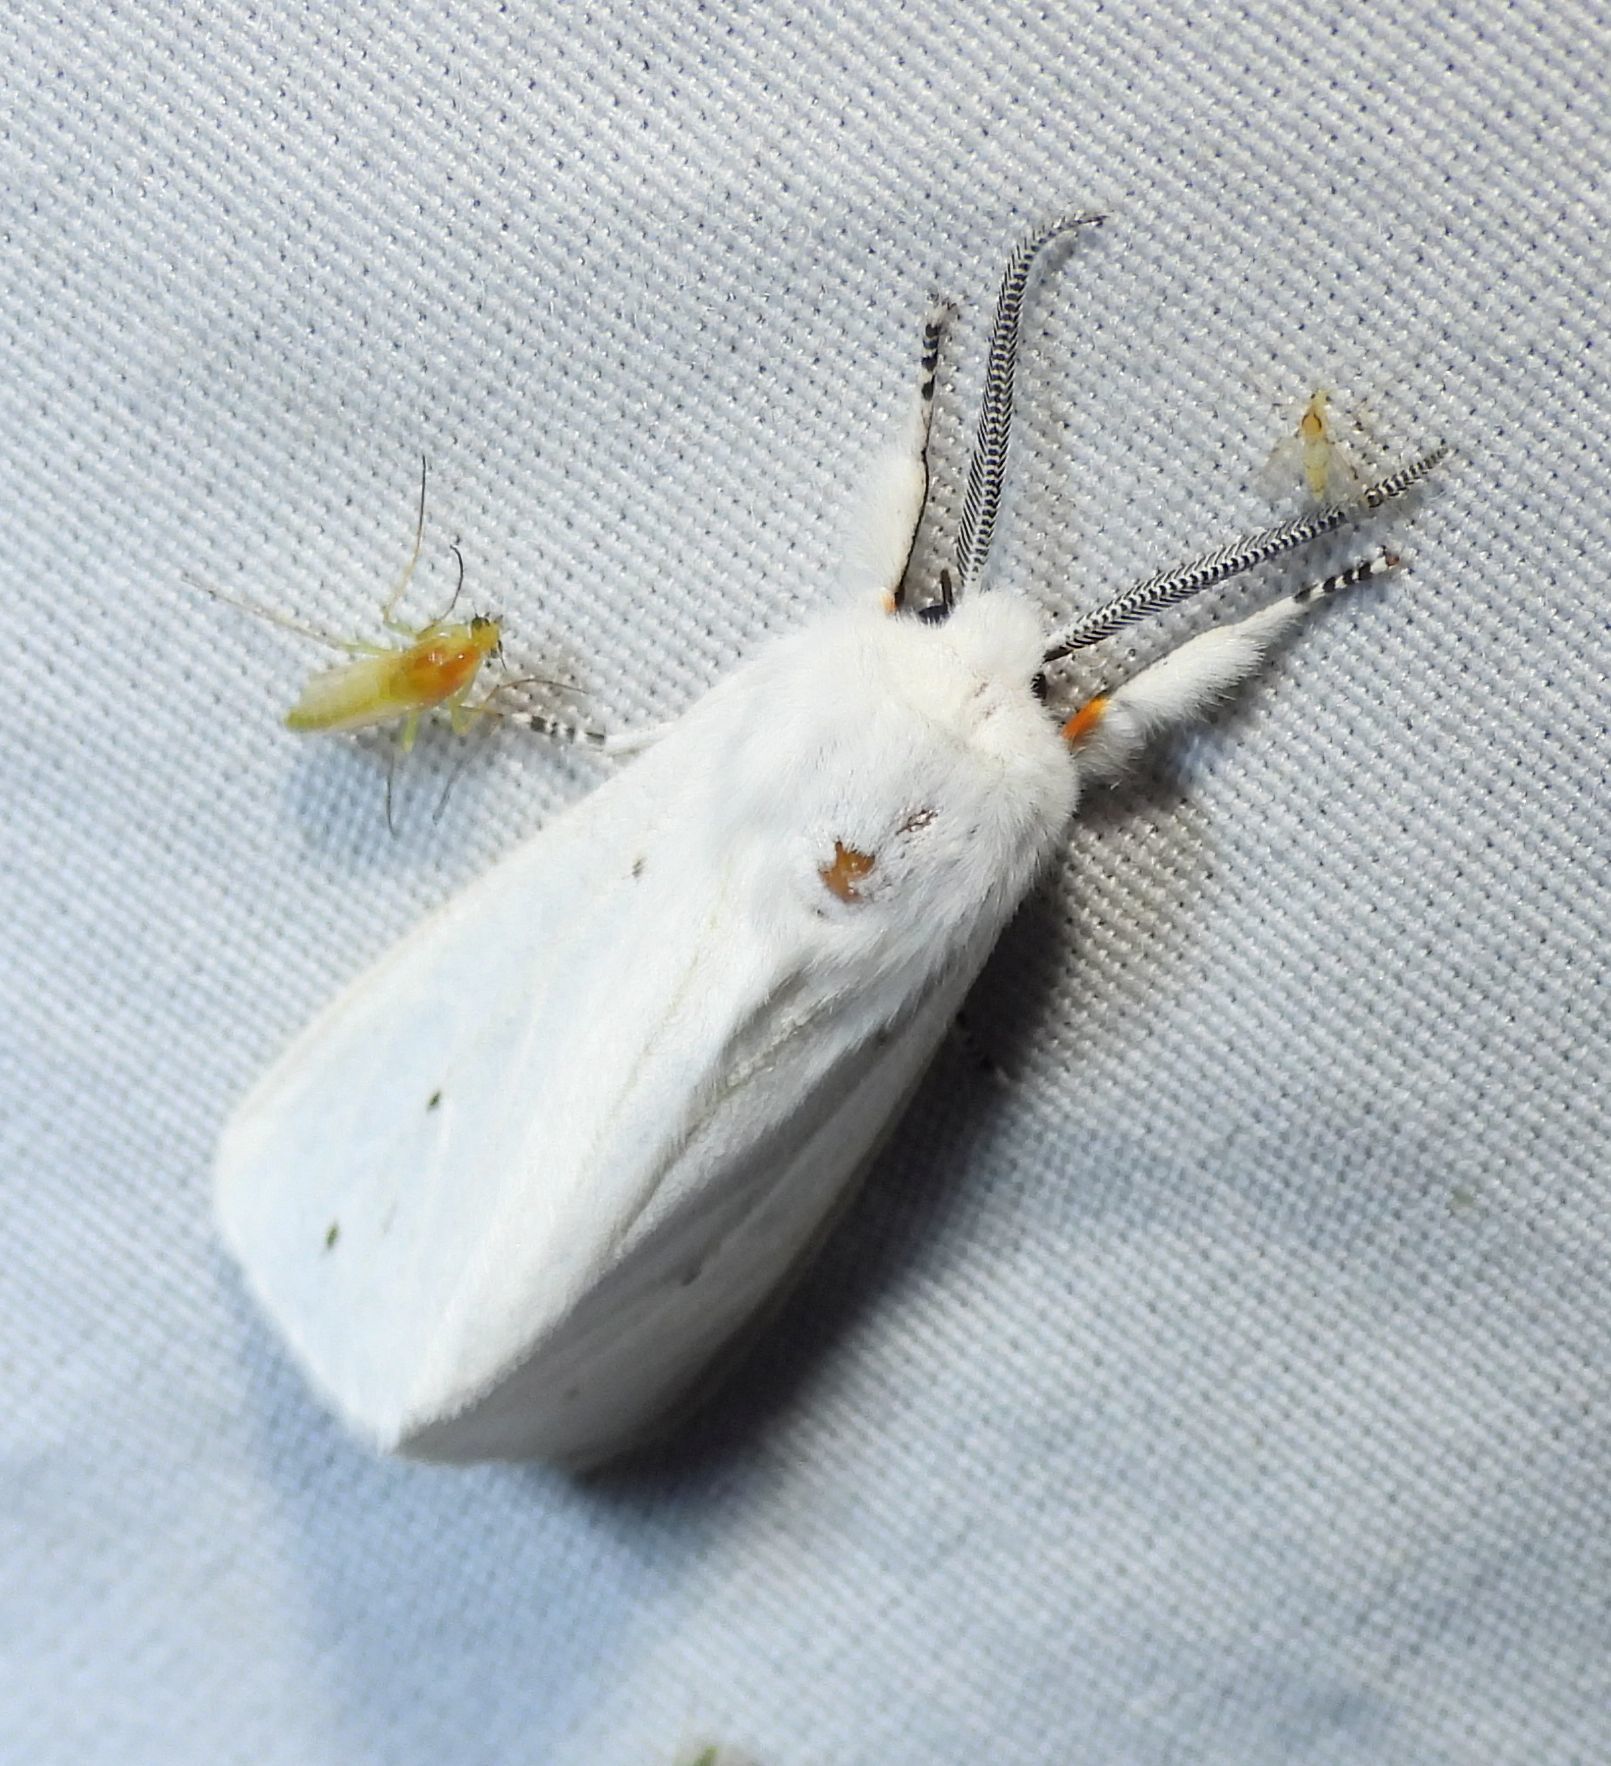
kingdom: Animalia
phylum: Arthropoda
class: Insecta
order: Lepidoptera
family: Erebidae
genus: Spilosoma
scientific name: Spilosoma virginica
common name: Virginia tiger moth
